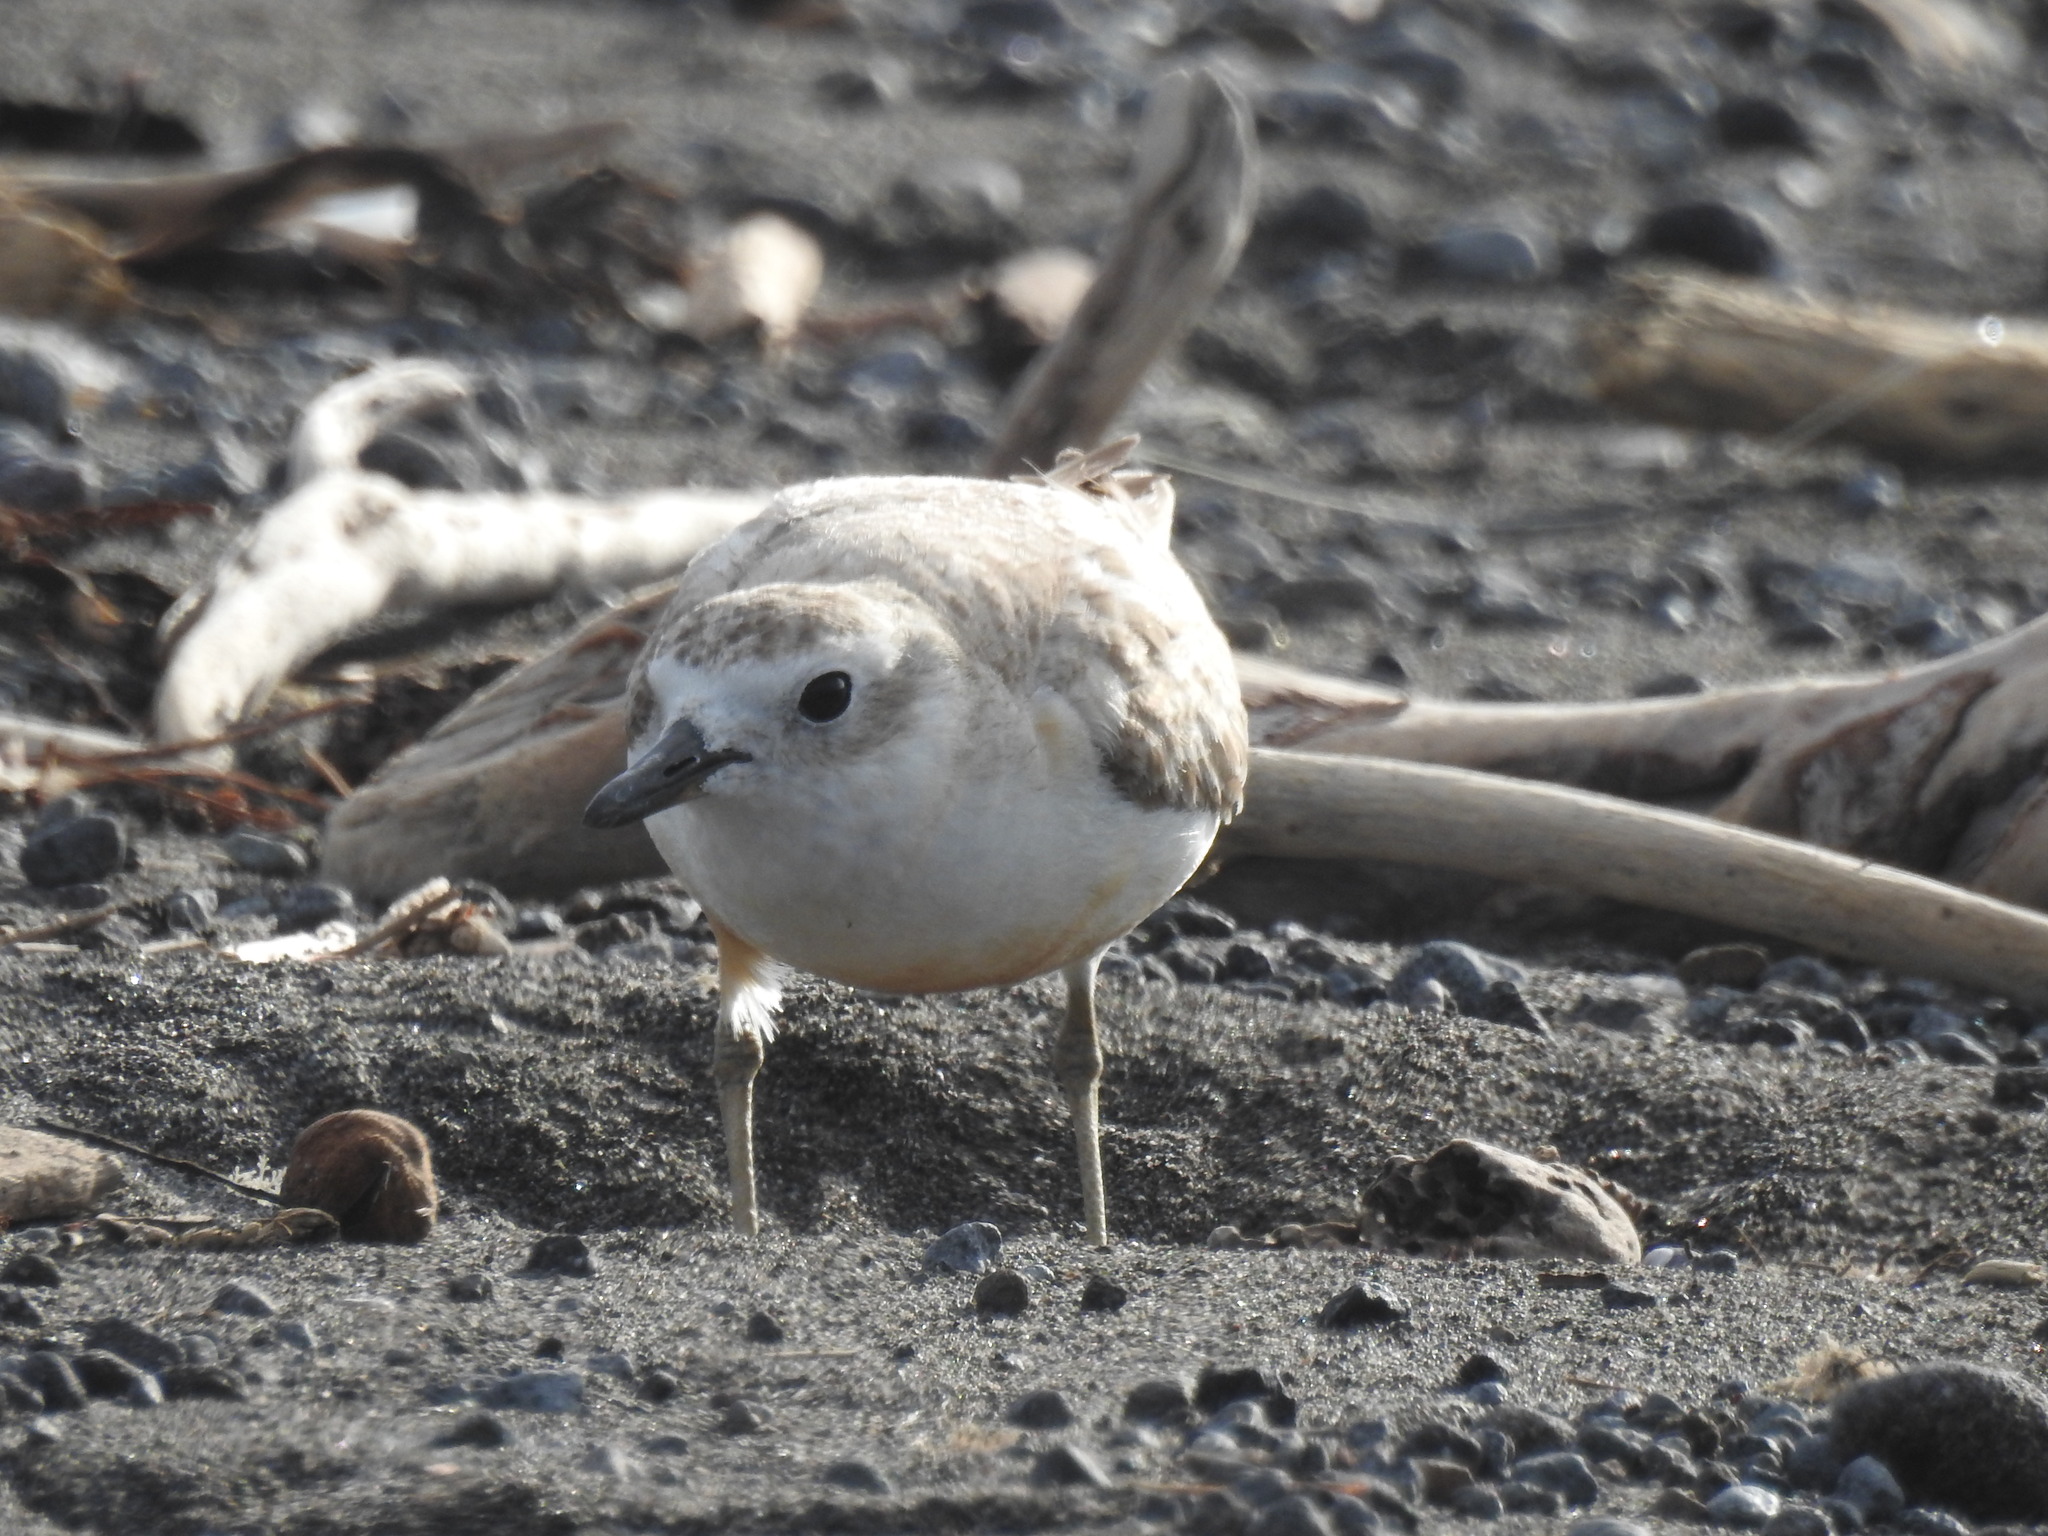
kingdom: Animalia
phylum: Chordata
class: Aves
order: Charadriiformes
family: Charadriidae
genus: Anarhynchus
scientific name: Anarhynchus
